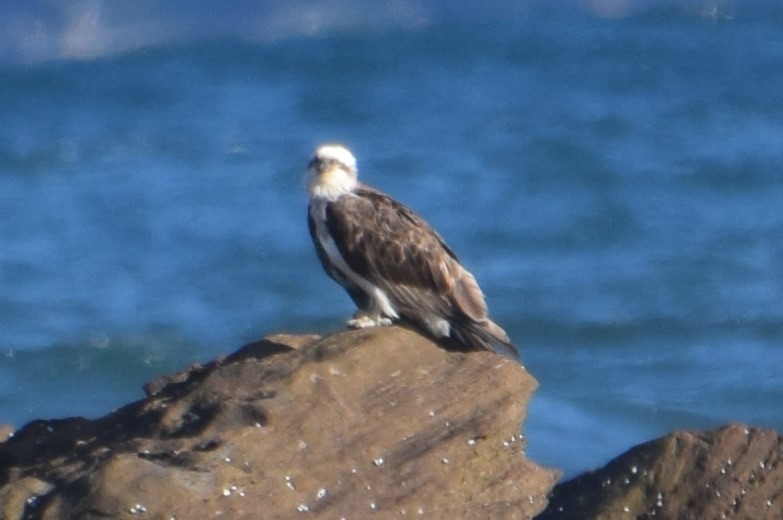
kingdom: Animalia
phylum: Chordata
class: Aves
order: Accipitriformes
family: Pandionidae
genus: Pandion
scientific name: Pandion cristatus
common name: Eastern osprey
